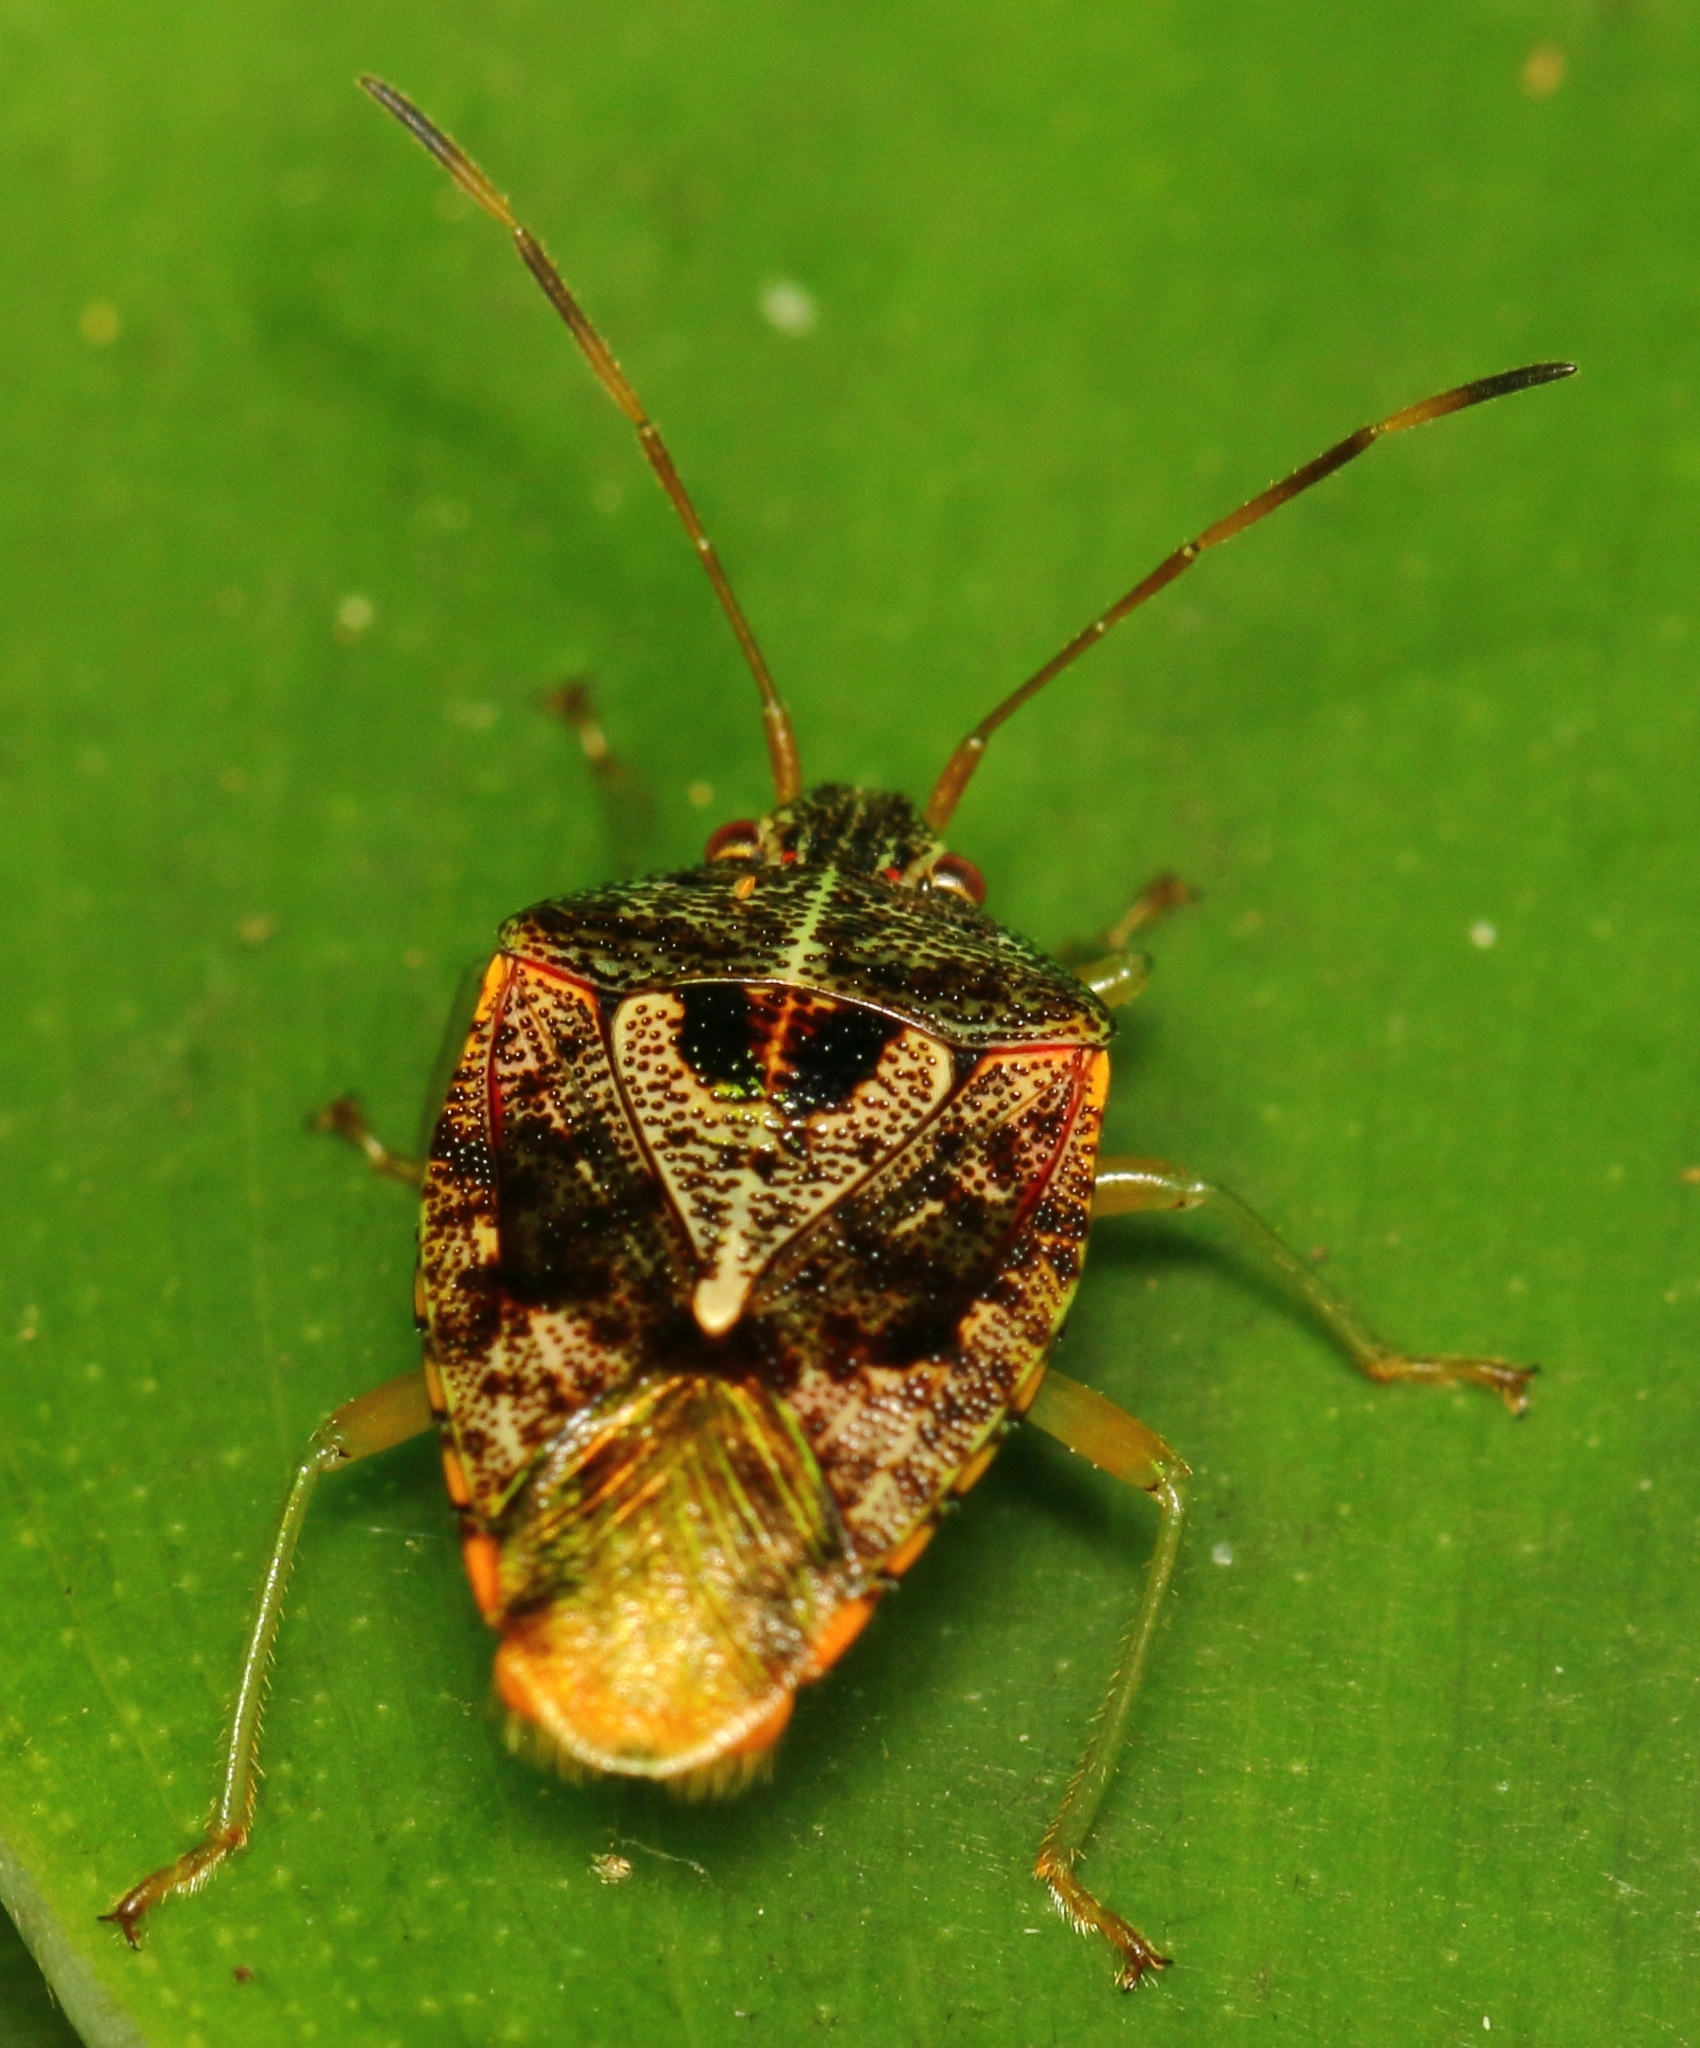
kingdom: Animalia
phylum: Arthropoda
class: Insecta
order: Hemiptera
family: Acanthosomatidae
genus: Xosa
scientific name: Xosa fuscoirroratus
